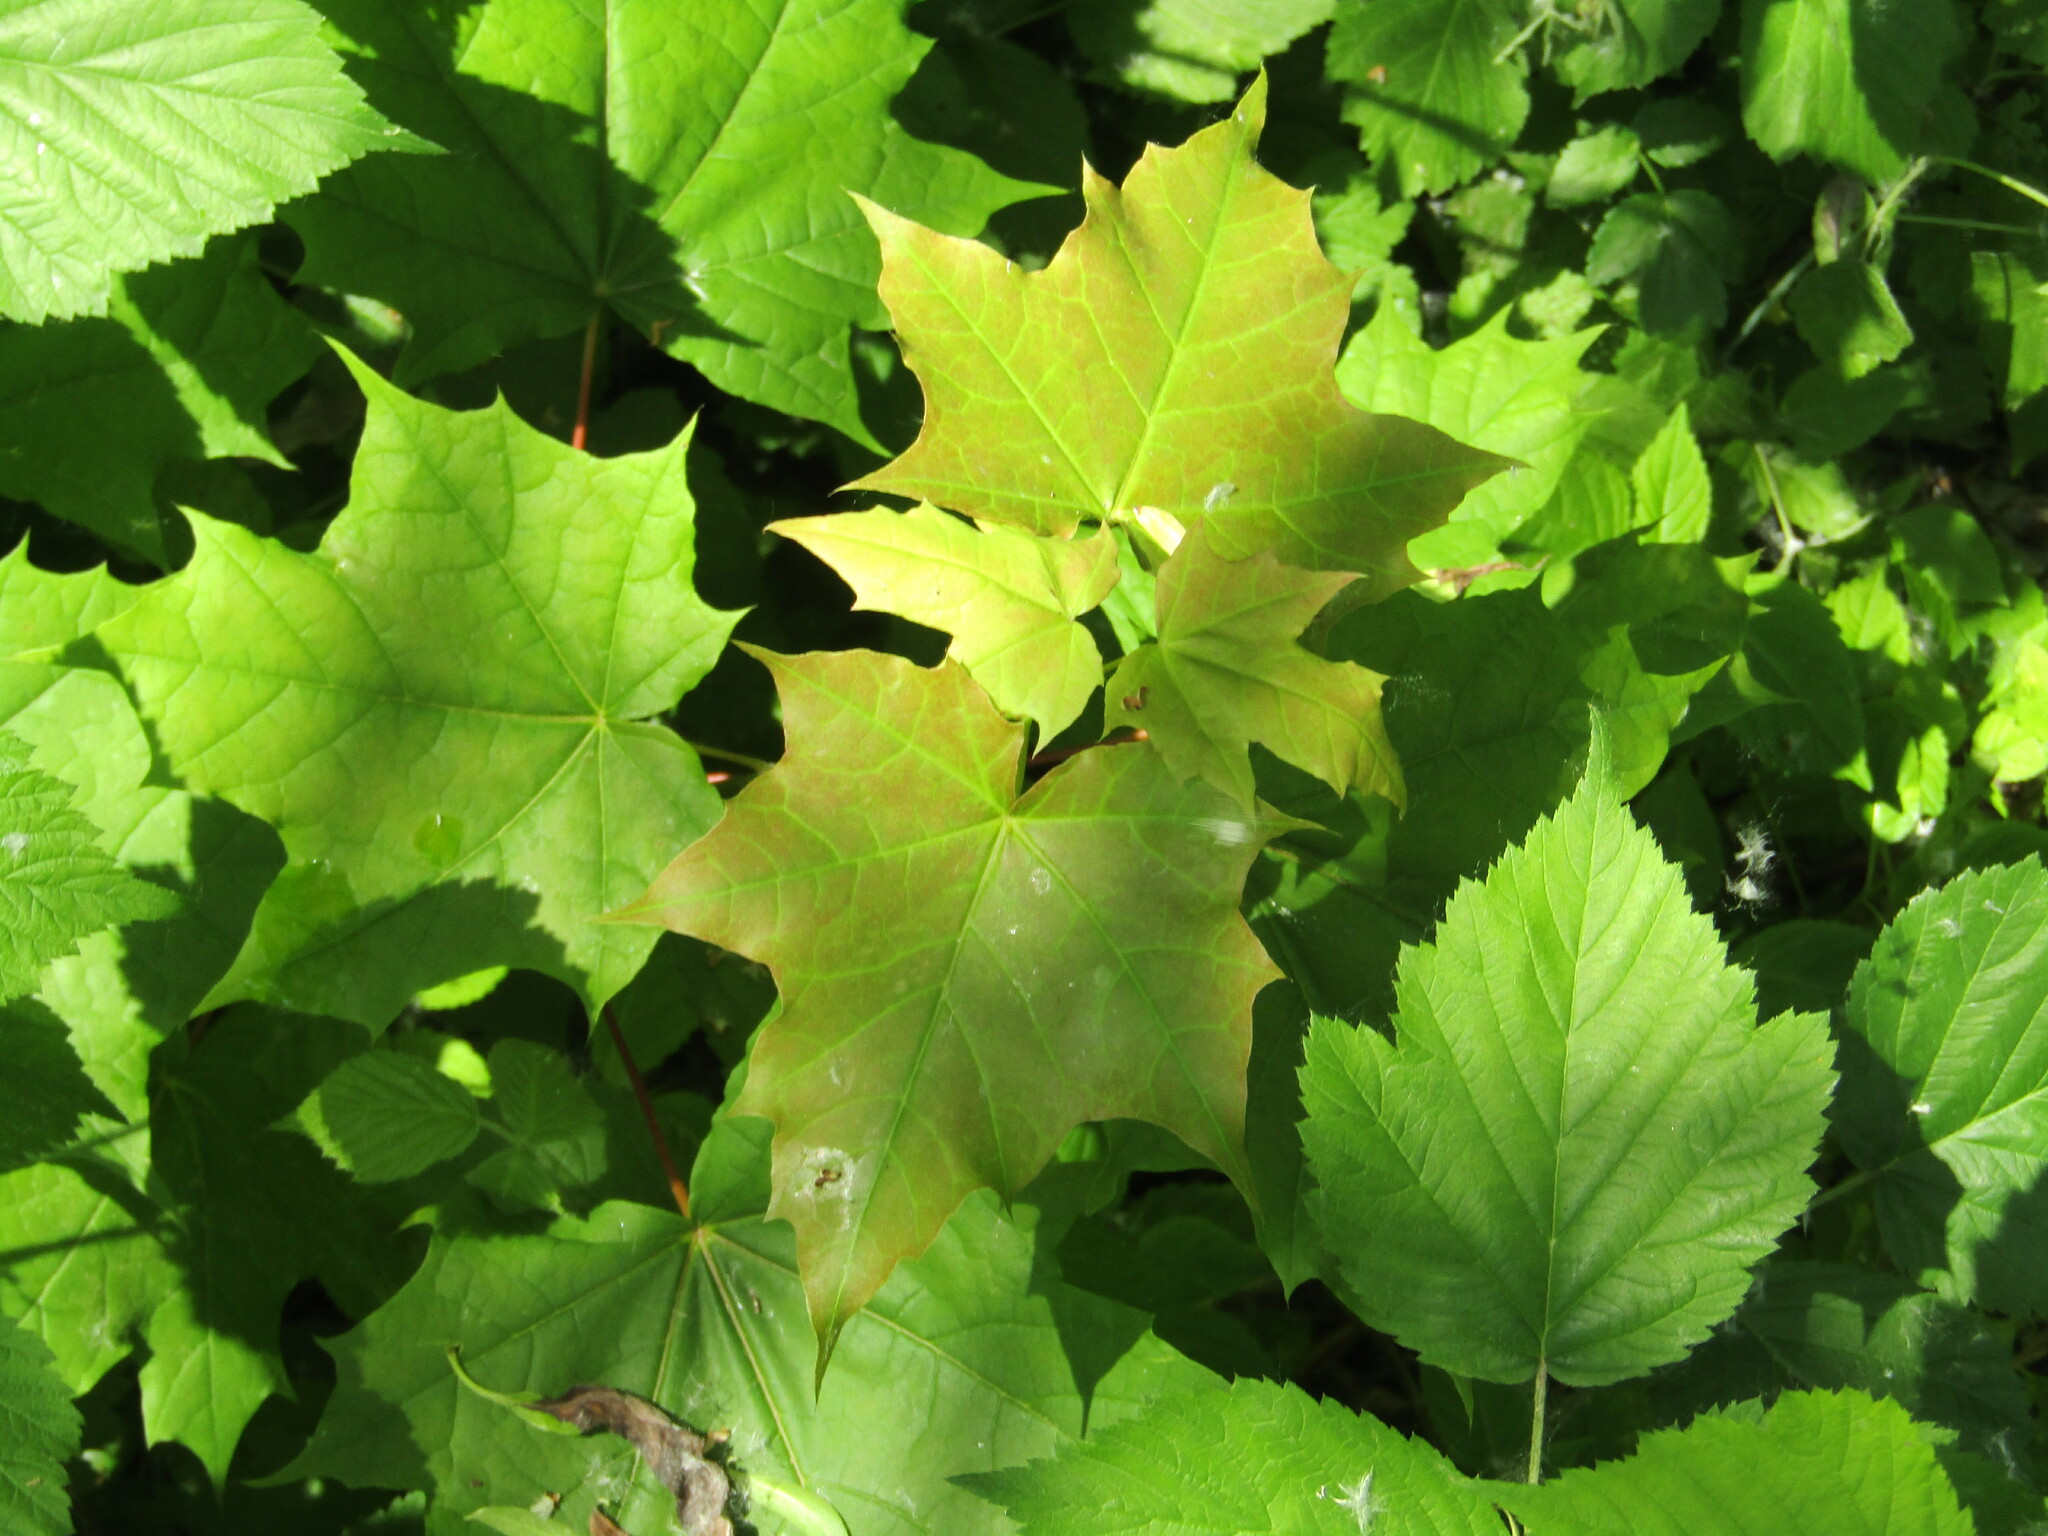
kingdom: Plantae
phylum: Tracheophyta
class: Magnoliopsida
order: Sapindales
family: Sapindaceae
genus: Acer
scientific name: Acer platanoides
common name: Norway maple
